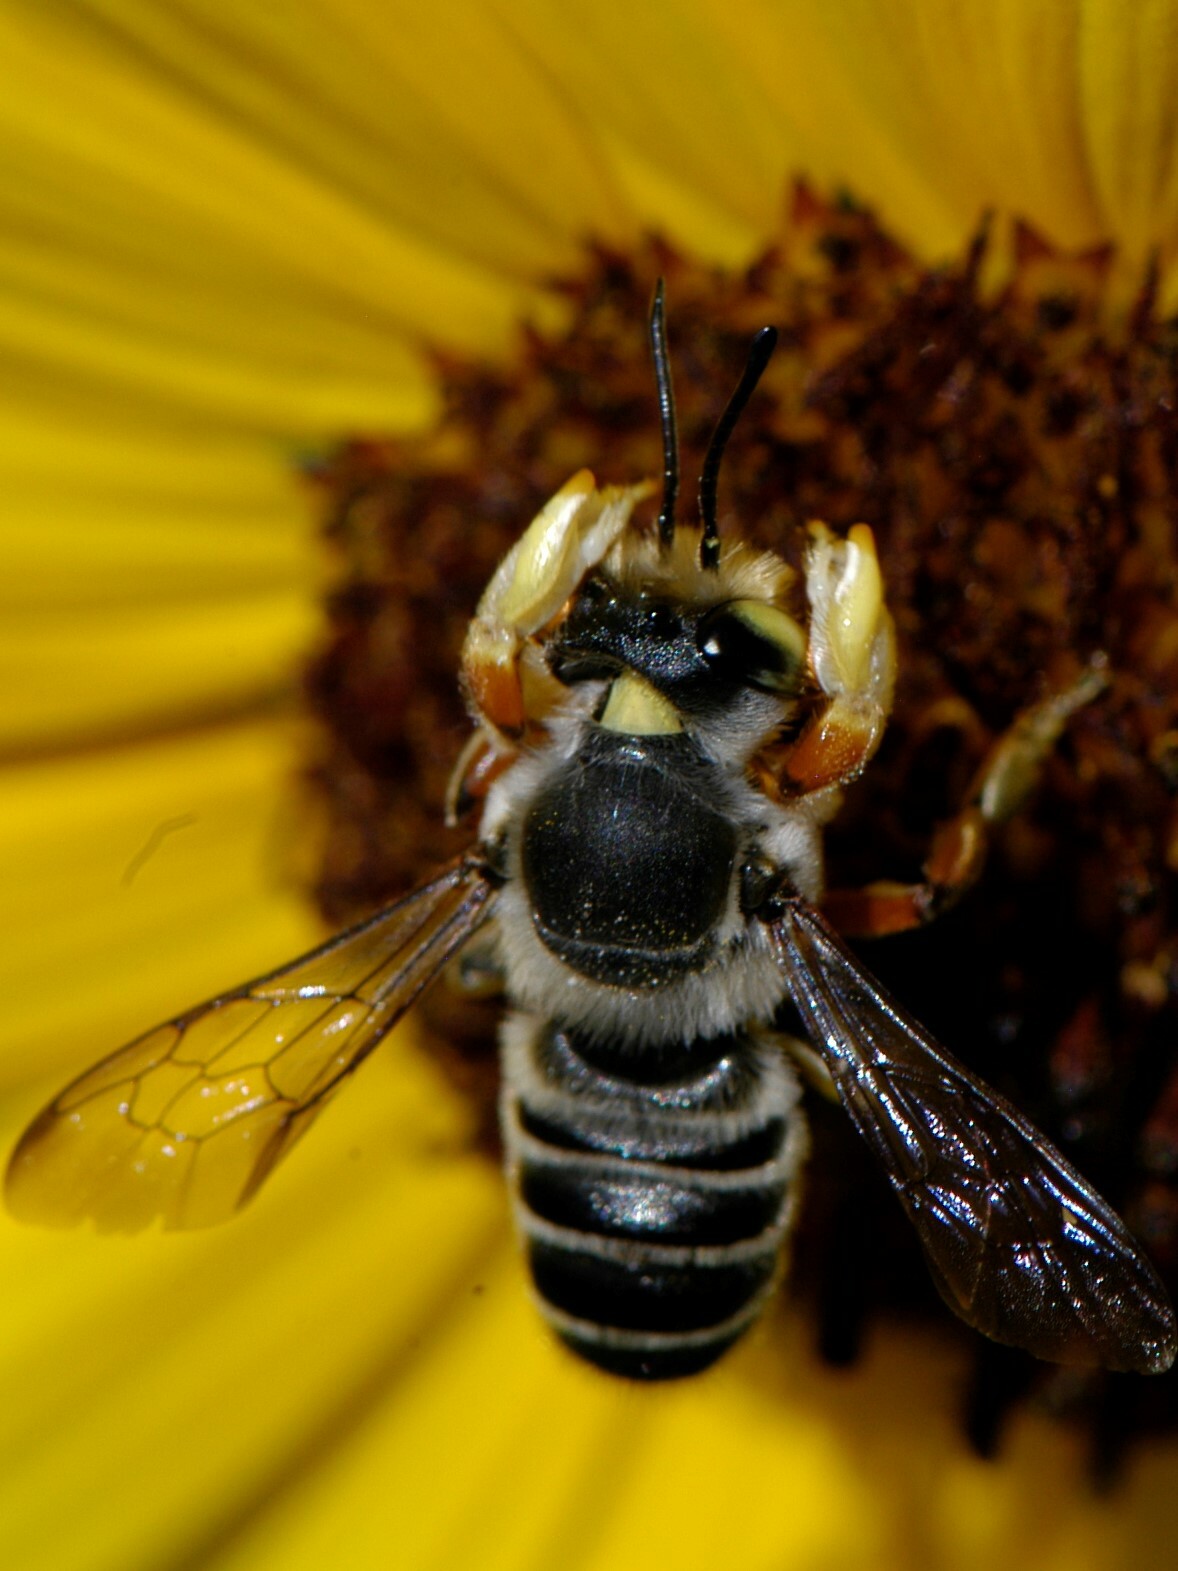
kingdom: Animalia
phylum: Arthropoda
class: Insecta
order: Hymenoptera
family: Megachilidae
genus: Megachile
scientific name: Megachile policaris
